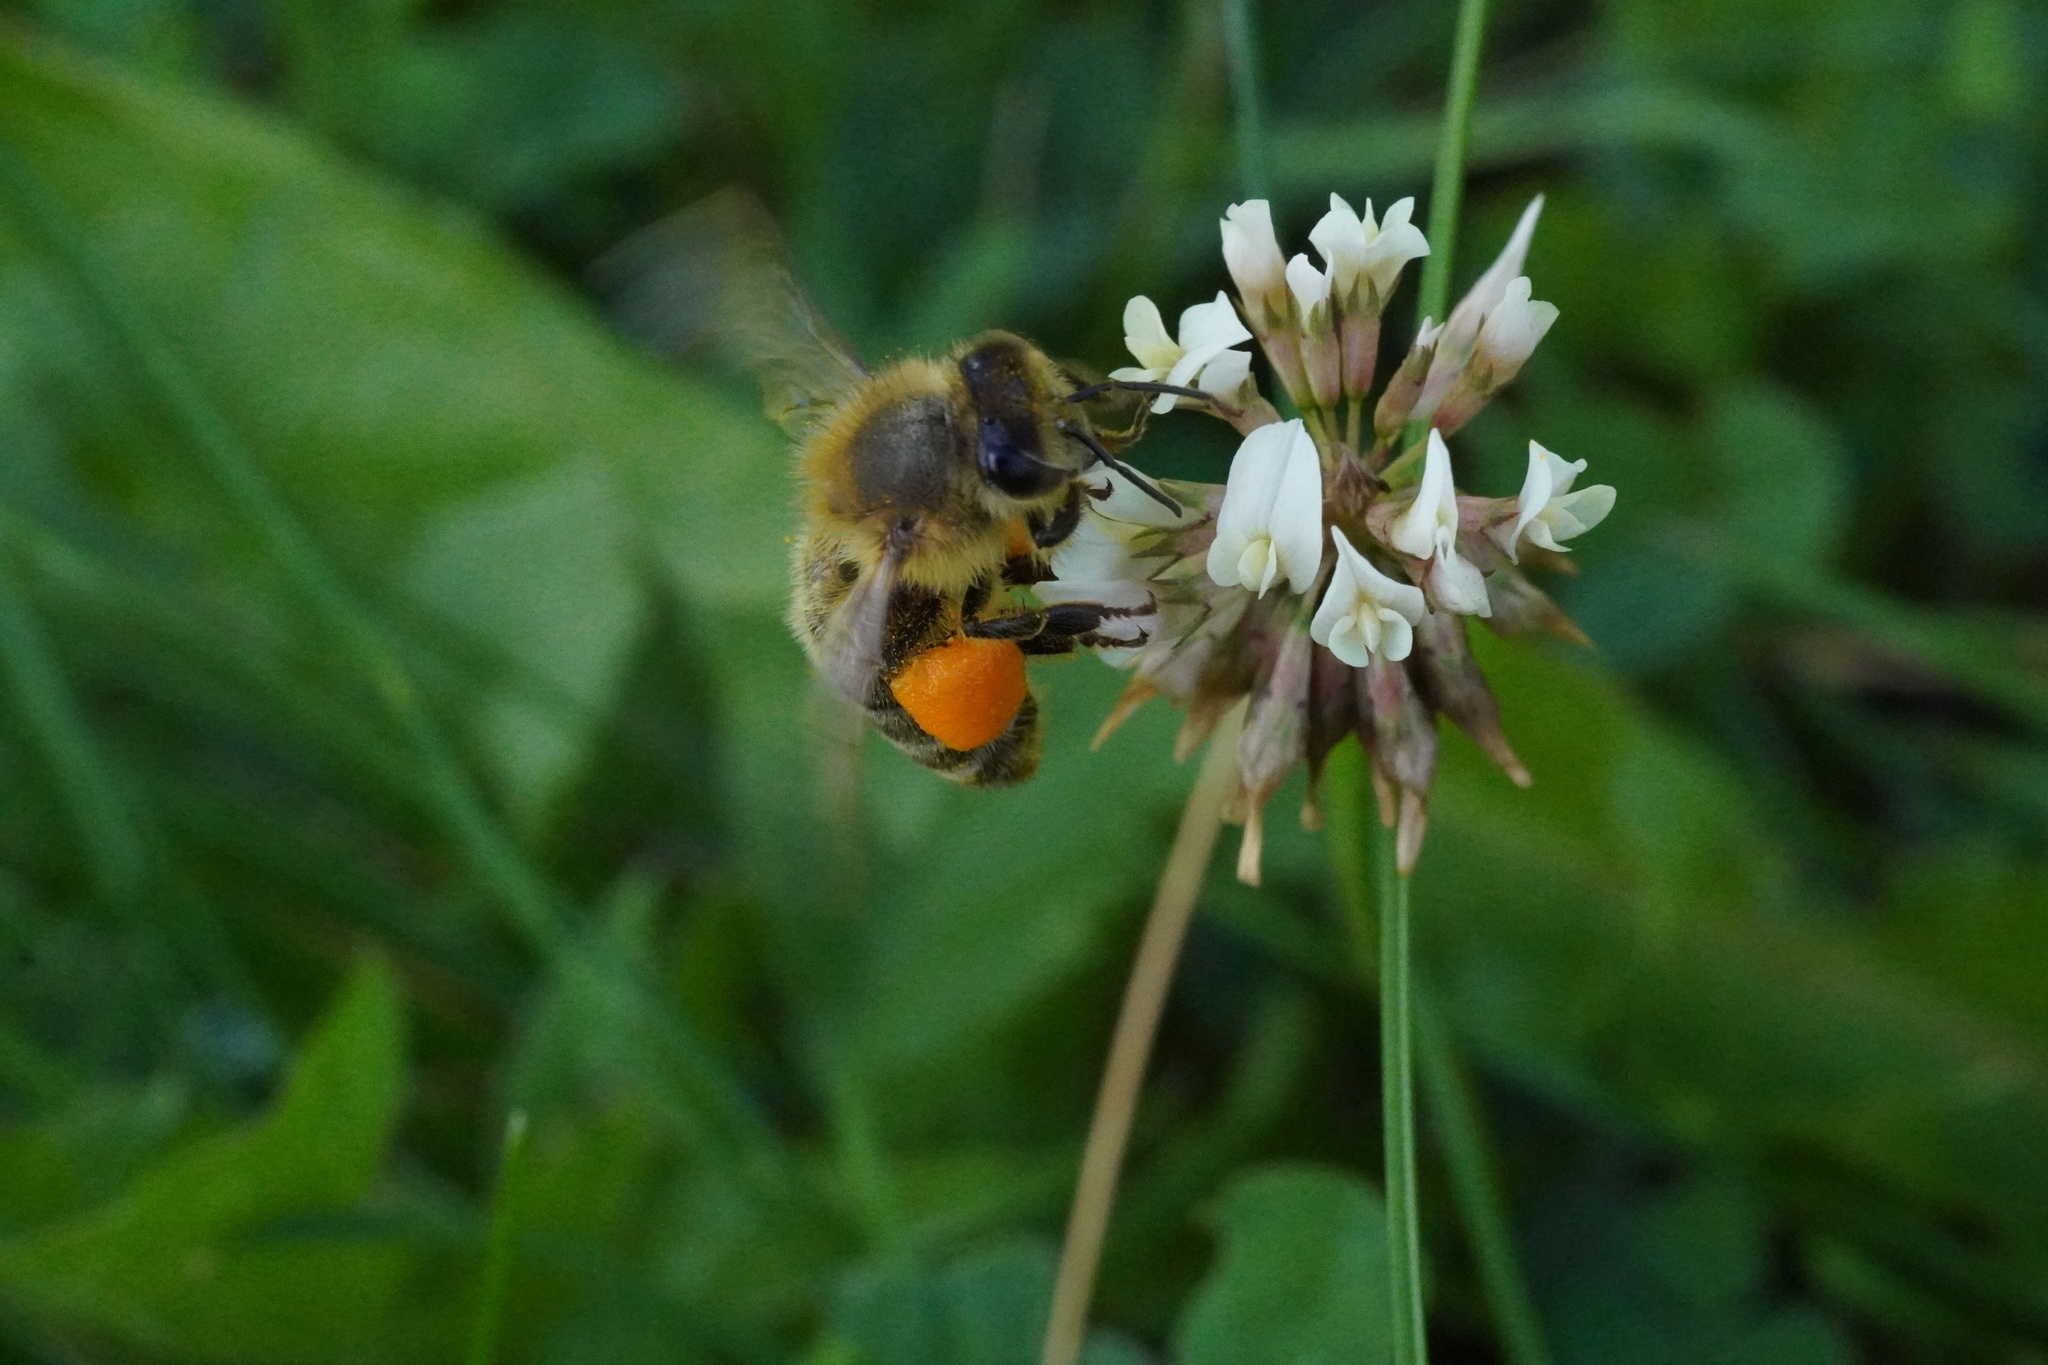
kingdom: Animalia
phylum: Arthropoda
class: Insecta
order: Hymenoptera
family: Apidae
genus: Apis
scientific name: Apis mellifera
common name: Honey bee
